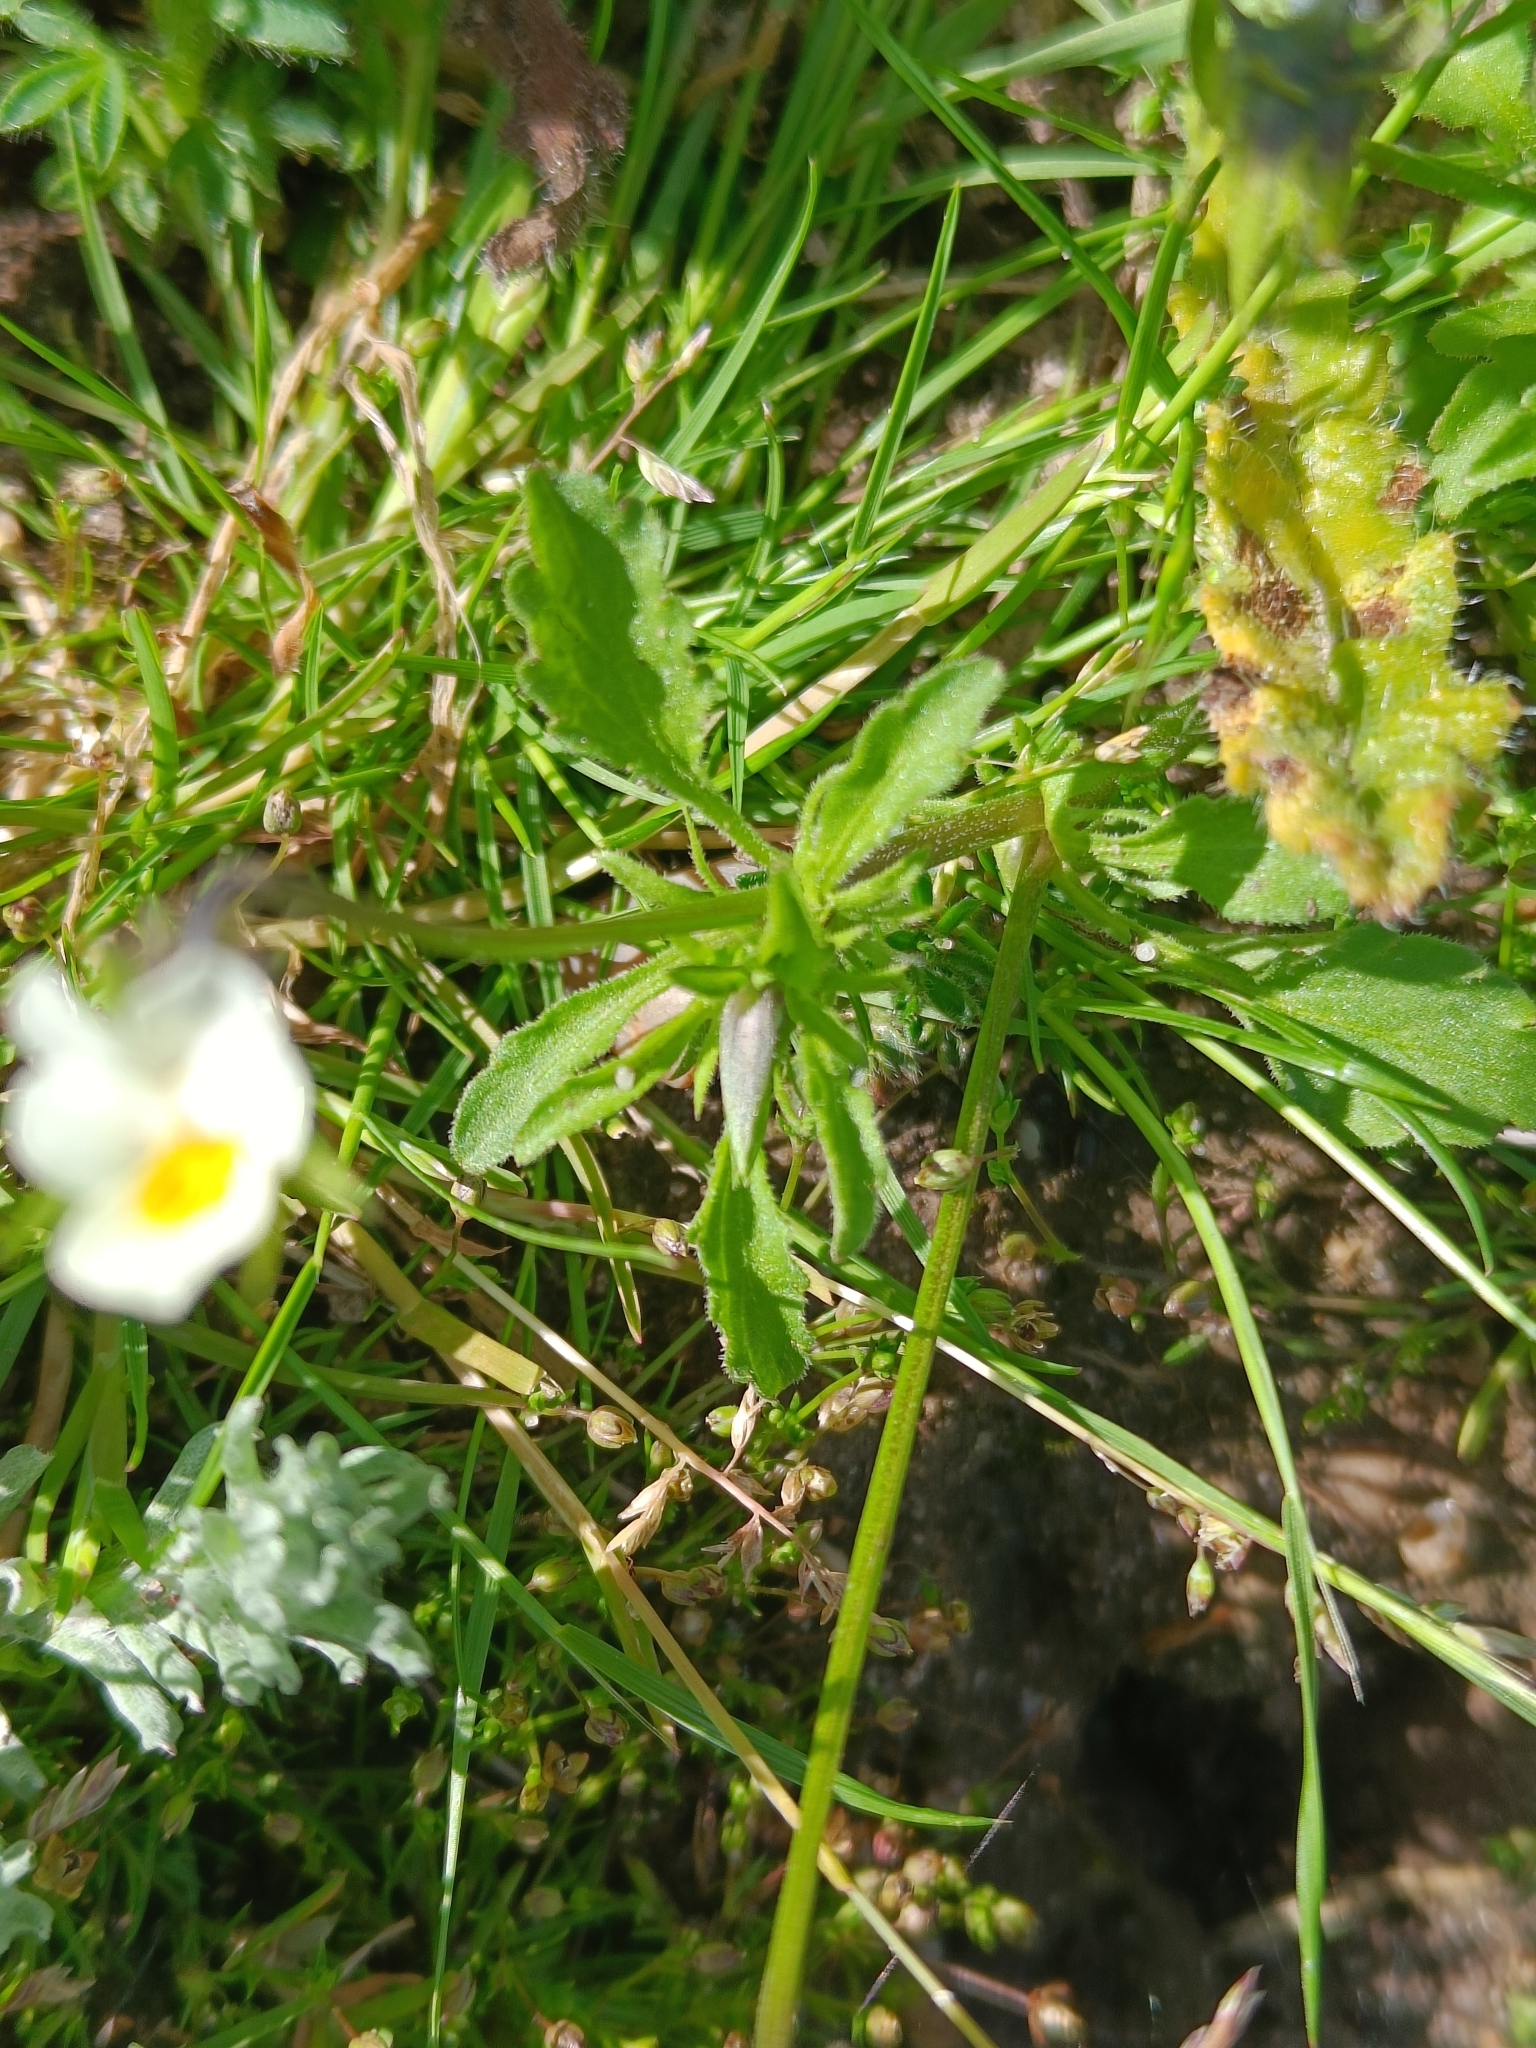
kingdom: Plantae
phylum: Tracheophyta
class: Magnoliopsida
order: Malpighiales
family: Violaceae
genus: Viola
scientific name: Viola arvensis
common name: Field pansy
